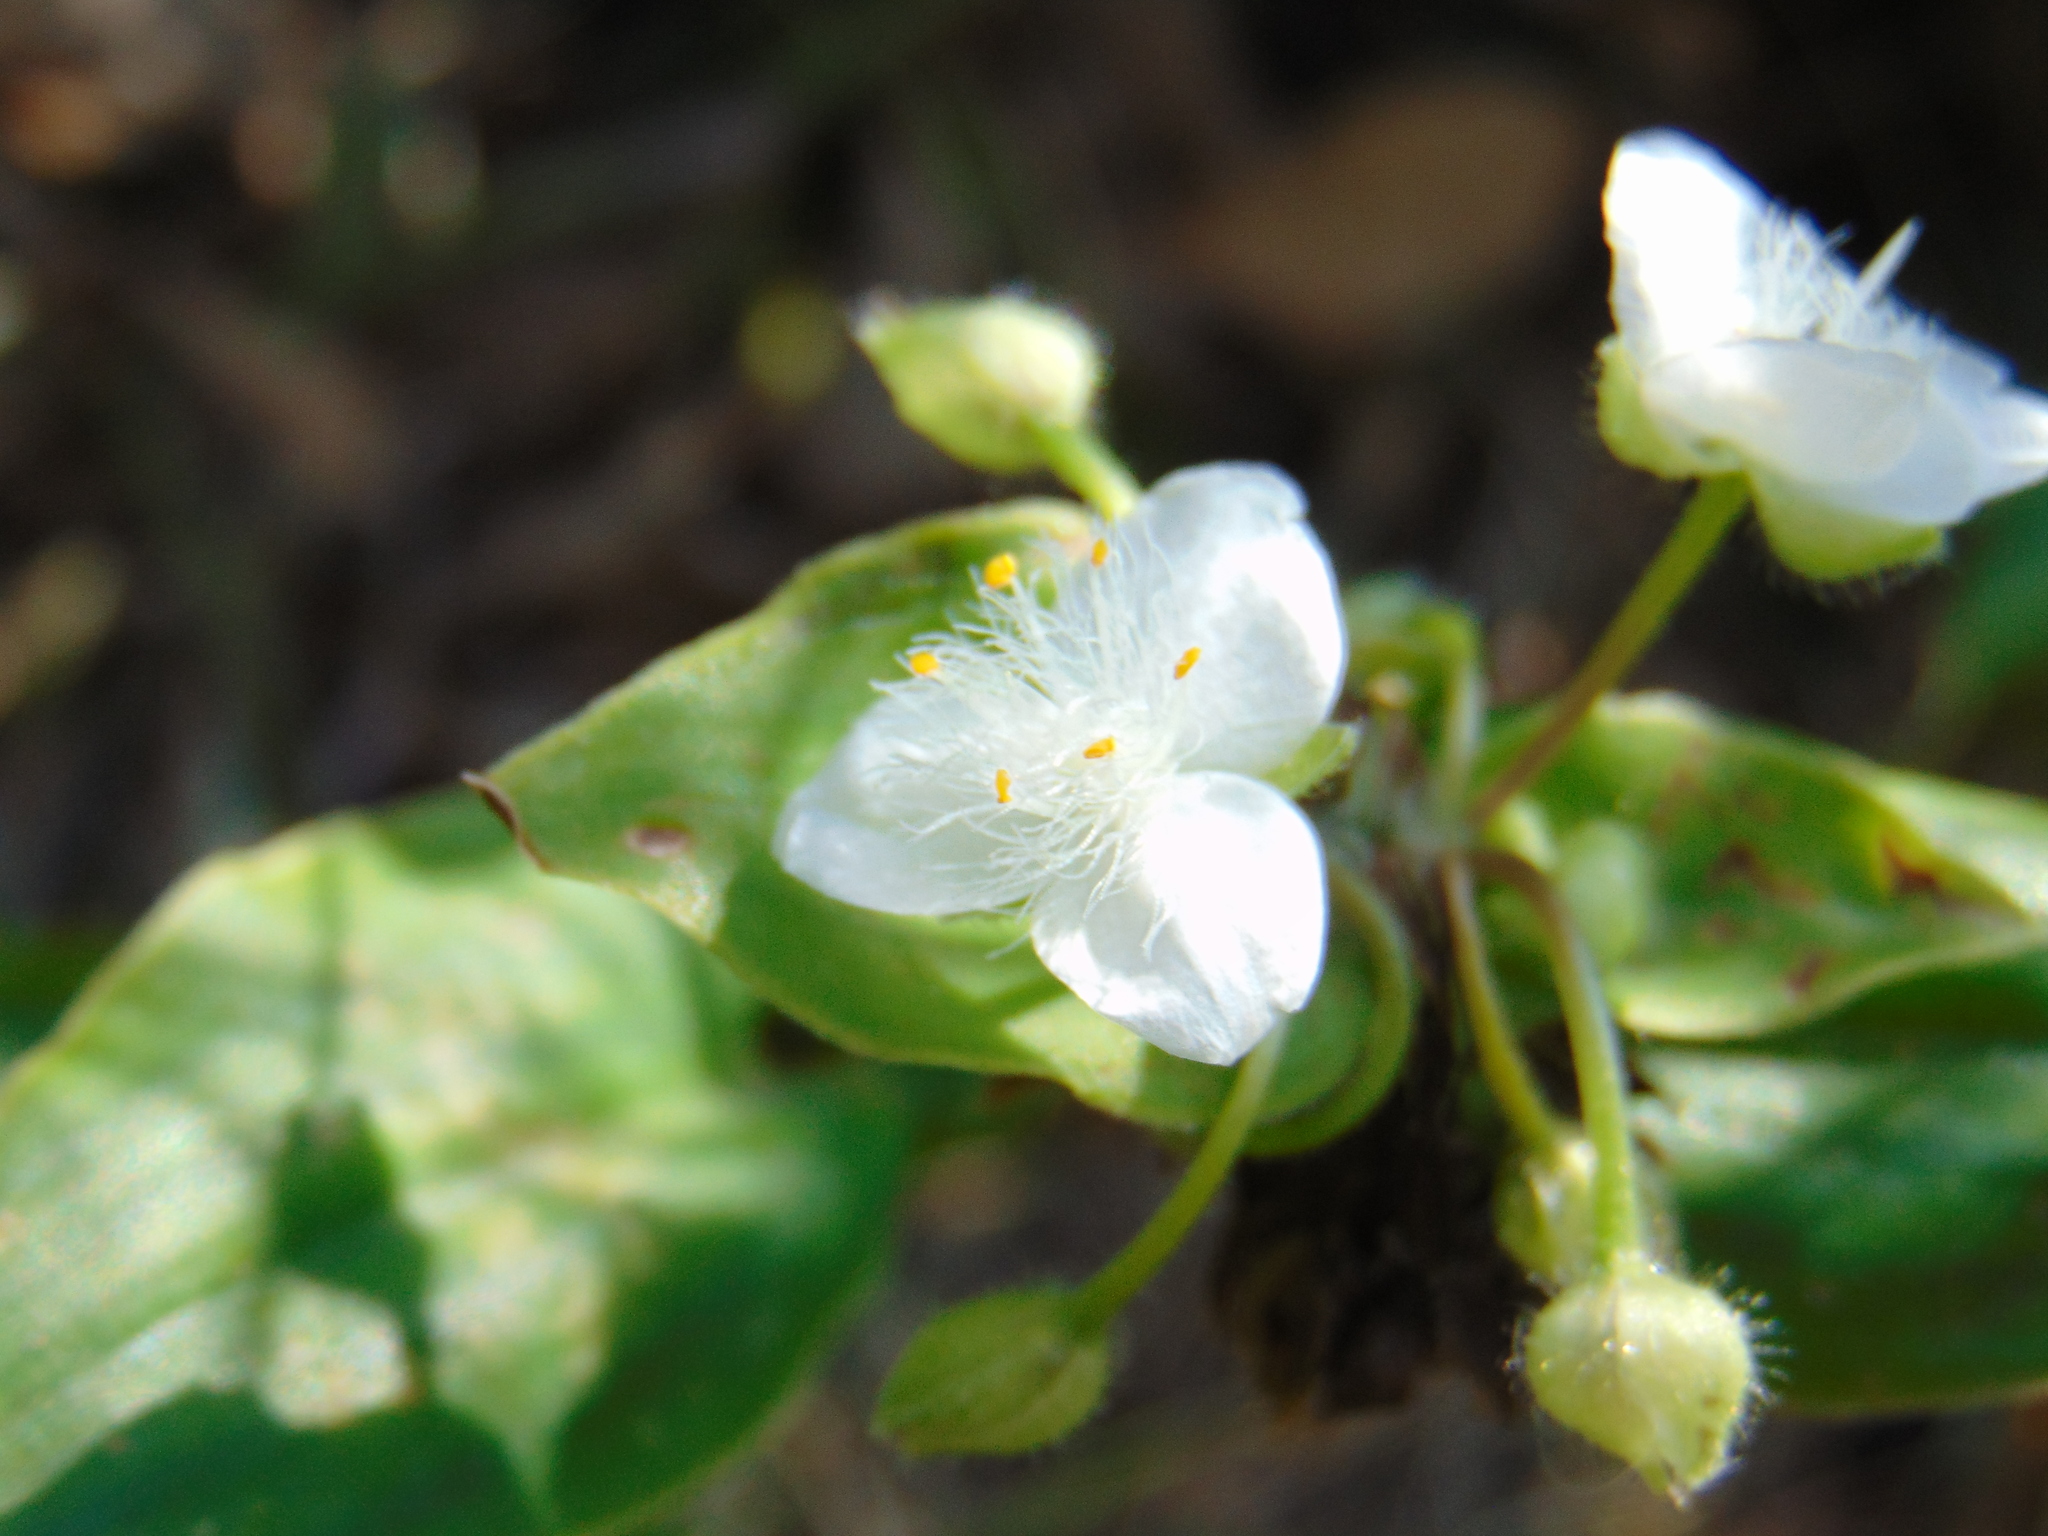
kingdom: Plantae
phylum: Tracheophyta
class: Liliopsida
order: Commelinales
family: Commelinaceae
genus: Tradescantia
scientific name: Tradescantia fluminensis
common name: Wandering-jew
